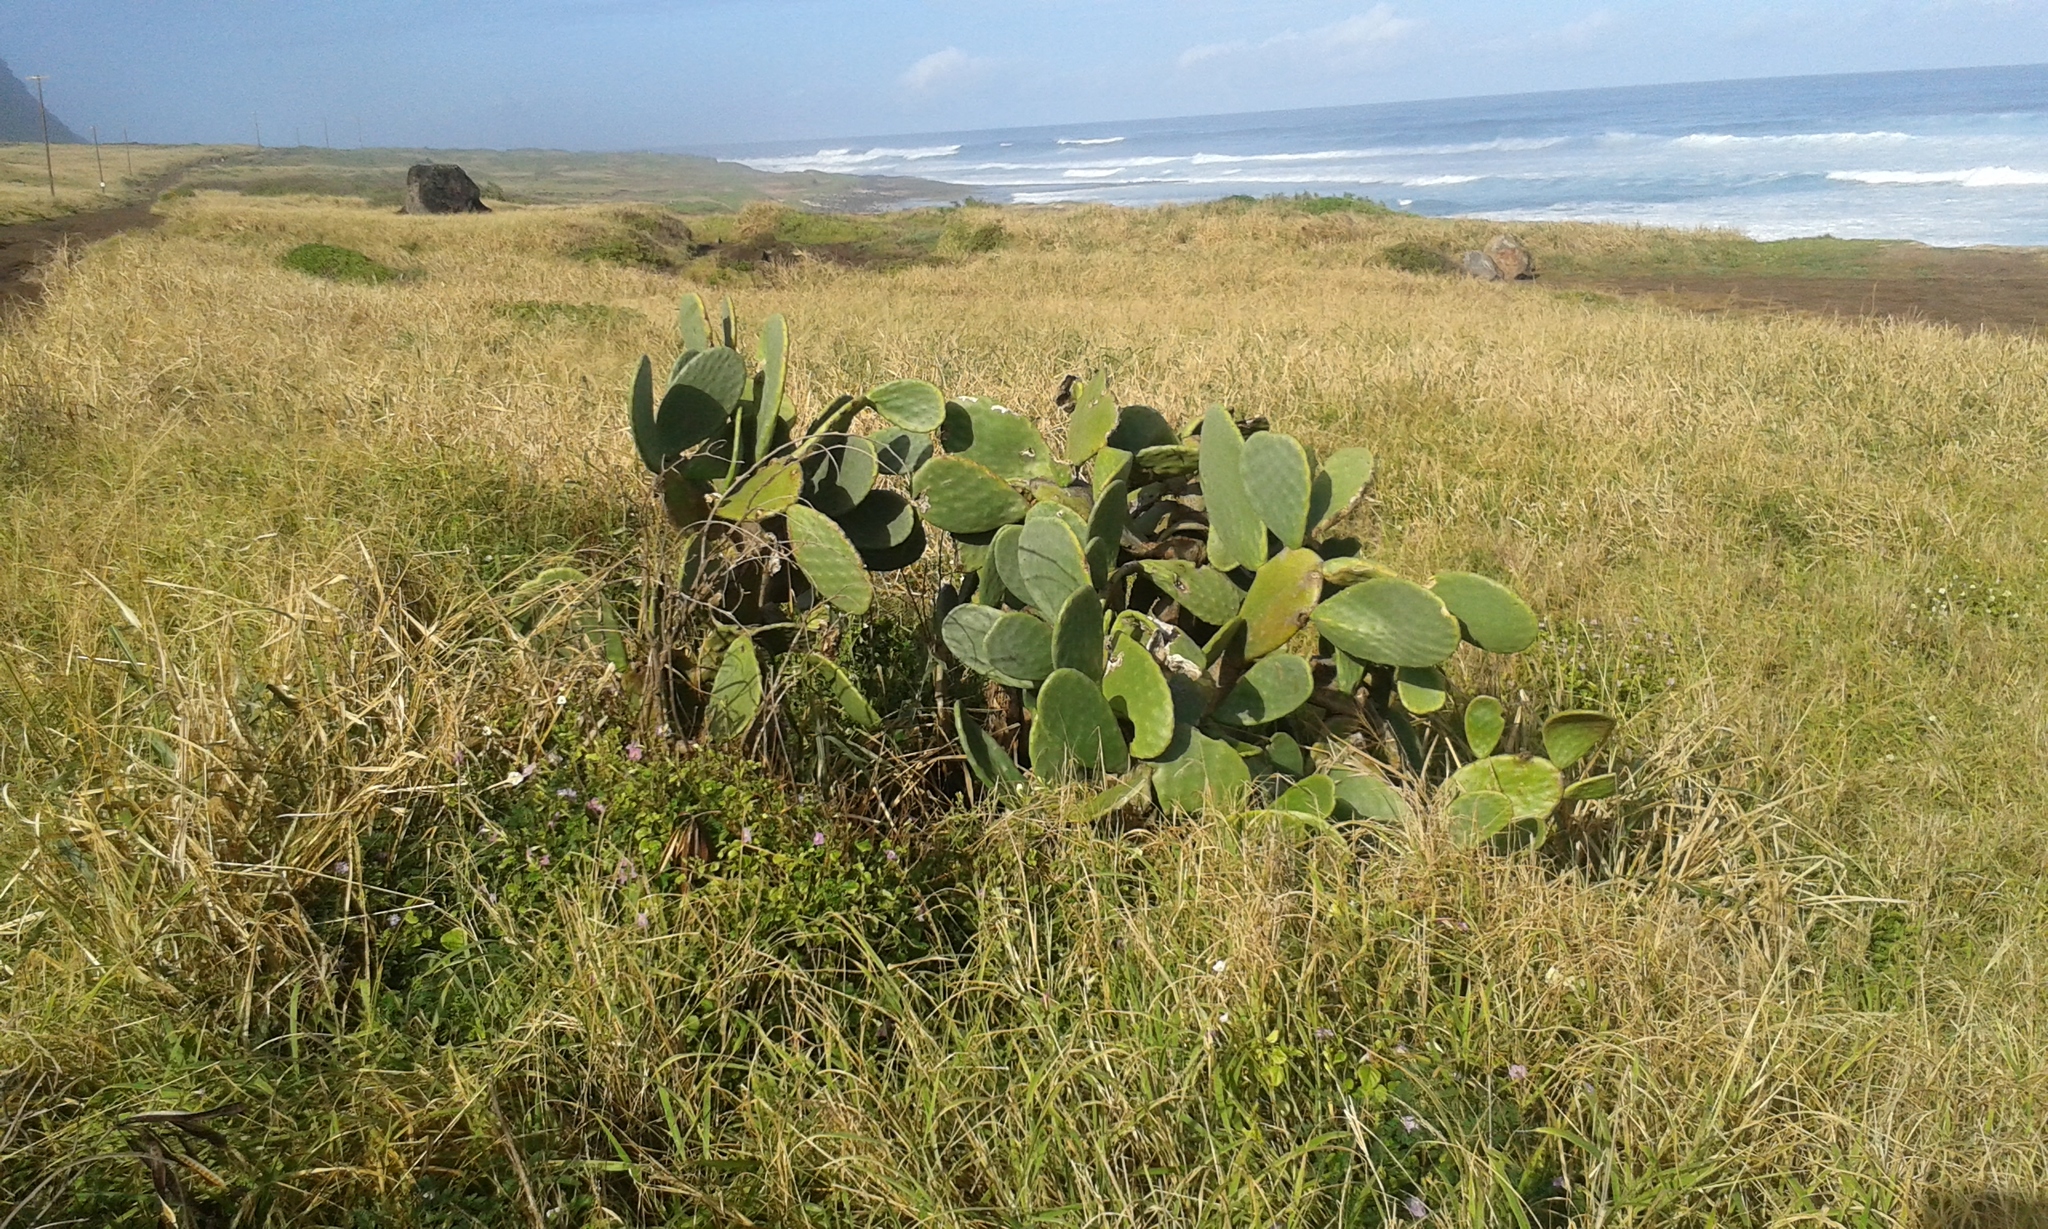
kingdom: Plantae
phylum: Tracheophyta
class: Magnoliopsida
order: Caryophyllales
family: Cactaceae
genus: Opuntia
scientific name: Opuntia ficus-indica
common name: Barbary fig
